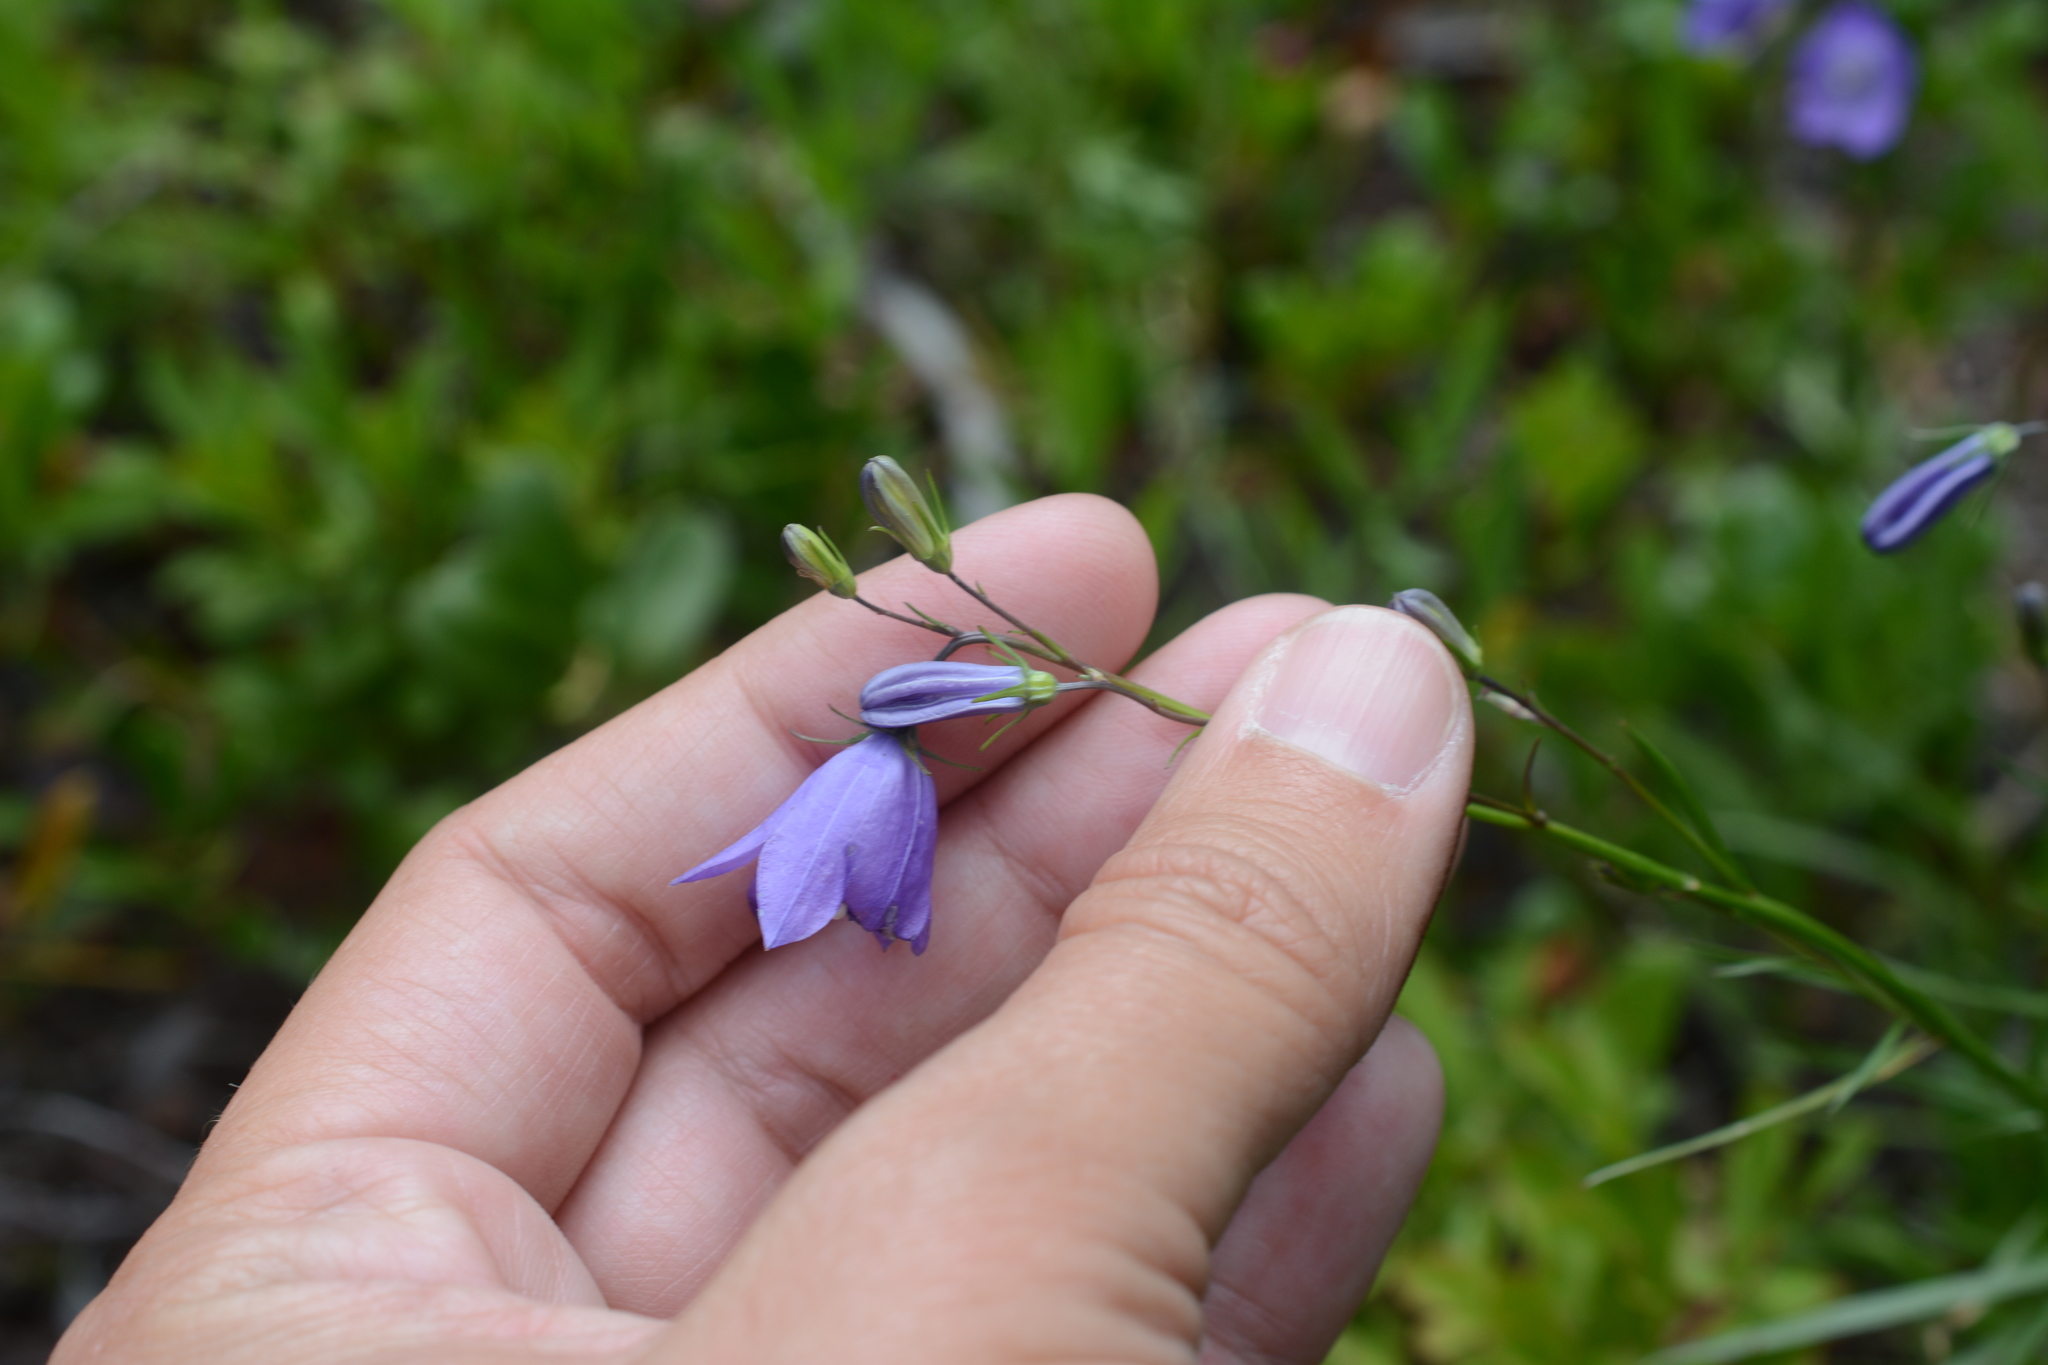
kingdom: Plantae
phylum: Tracheophyta
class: Magnoliopsida
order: Asterales
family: Campanulaceae
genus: Campanula
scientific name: Campanula alaskana
